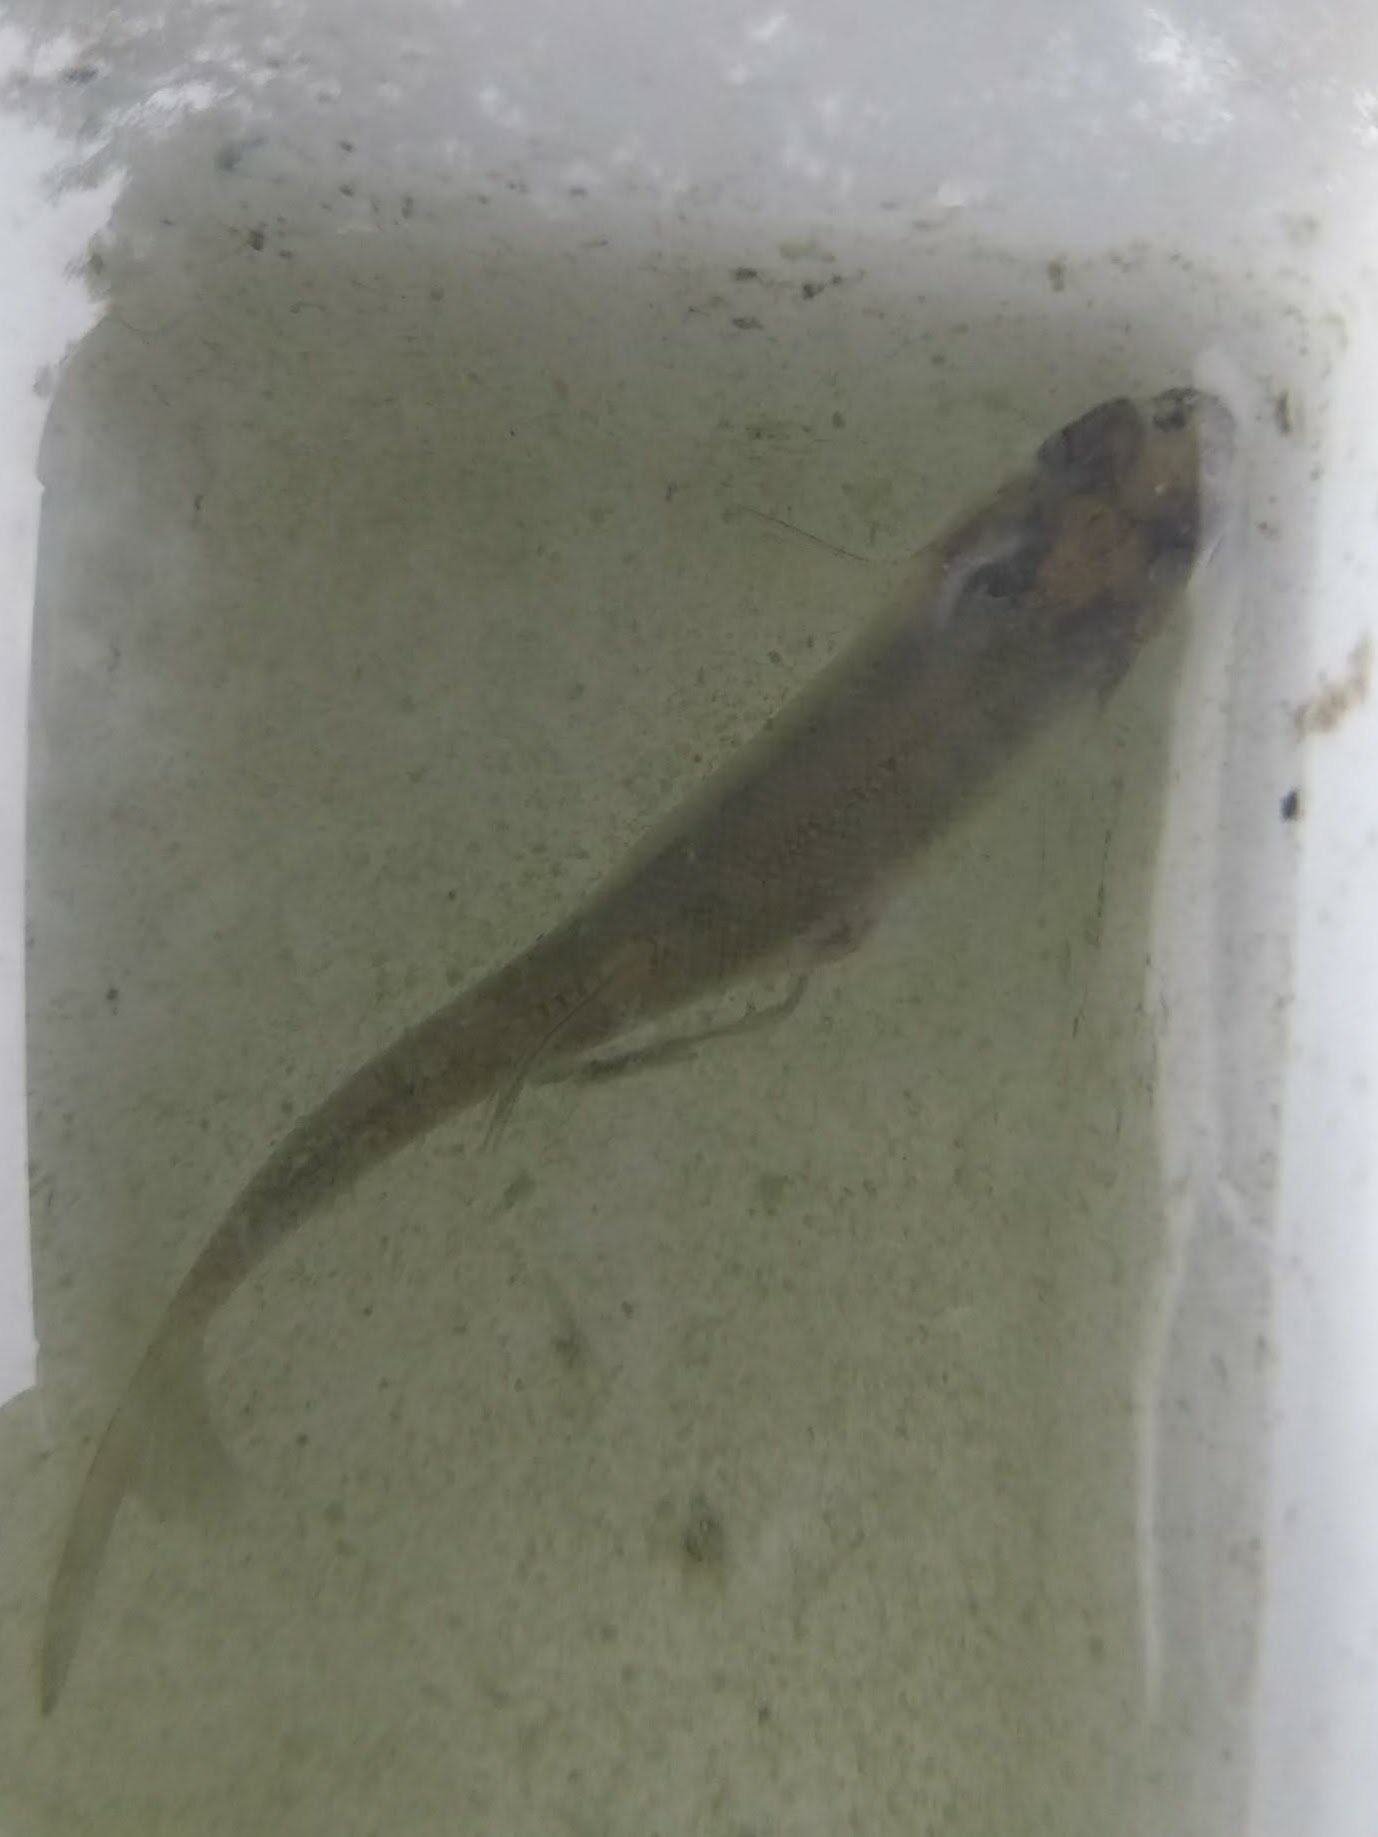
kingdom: Animalia
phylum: Chordata
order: Cypriniformes
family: Cyprinidae
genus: Pimephales
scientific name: Pimephales promelas
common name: Fathead minnow
